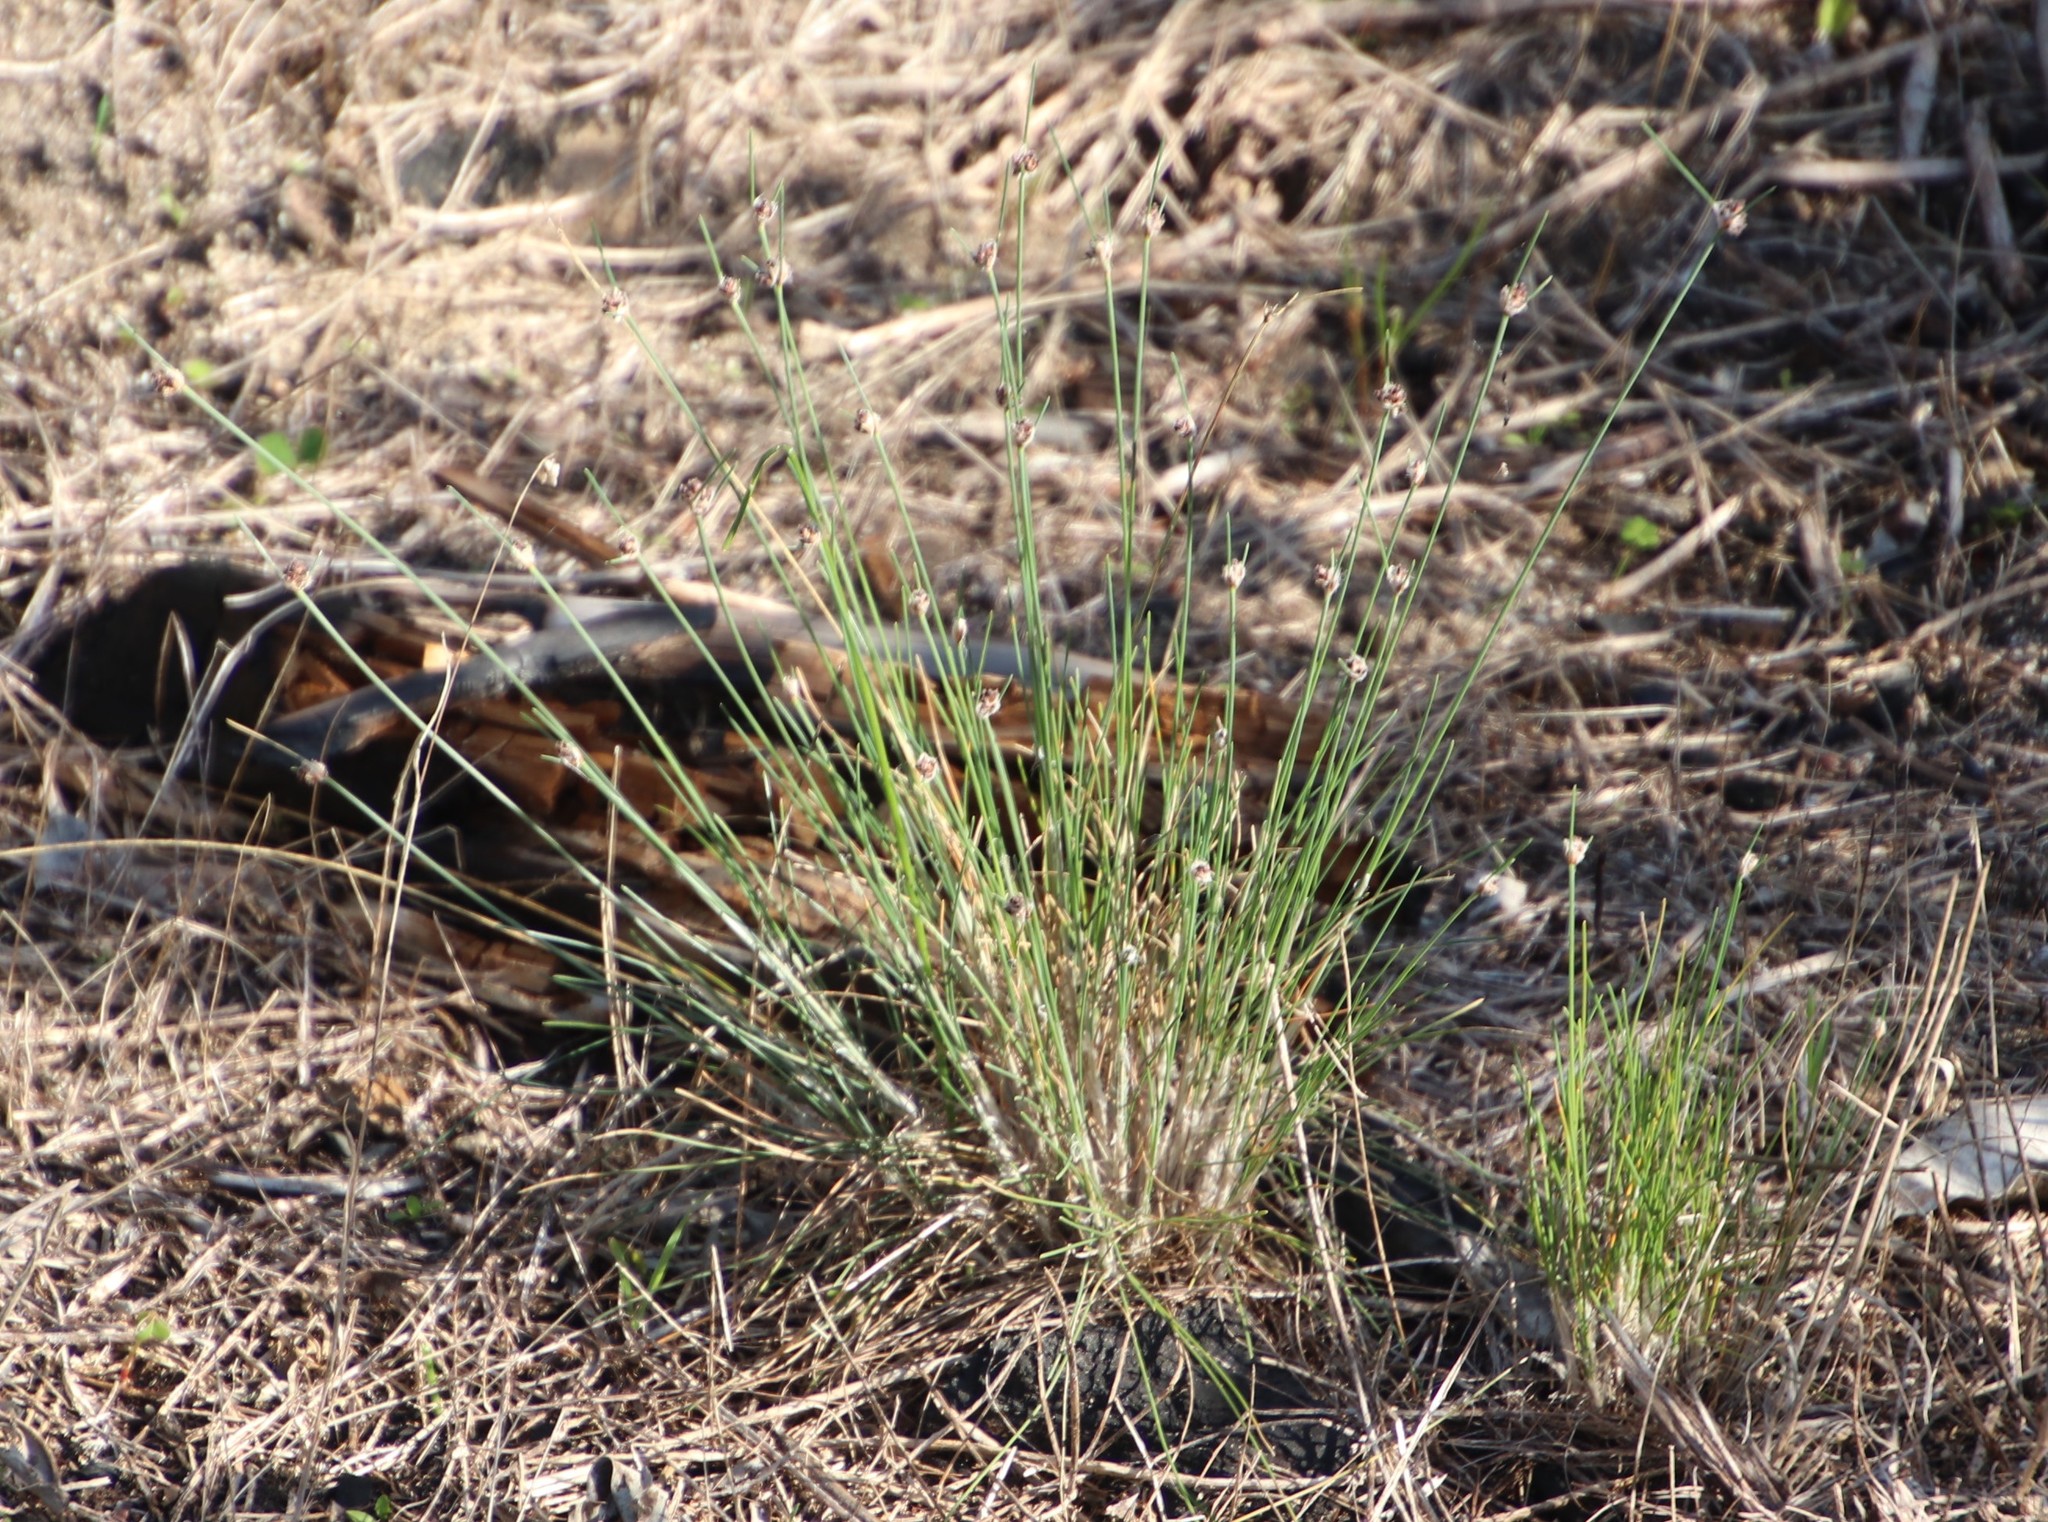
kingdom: Plantae
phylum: Tracheophyta
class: Liliopsida
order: Poales
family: Cyperaceae
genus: Ficinia
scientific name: Ficinia paradoxa
